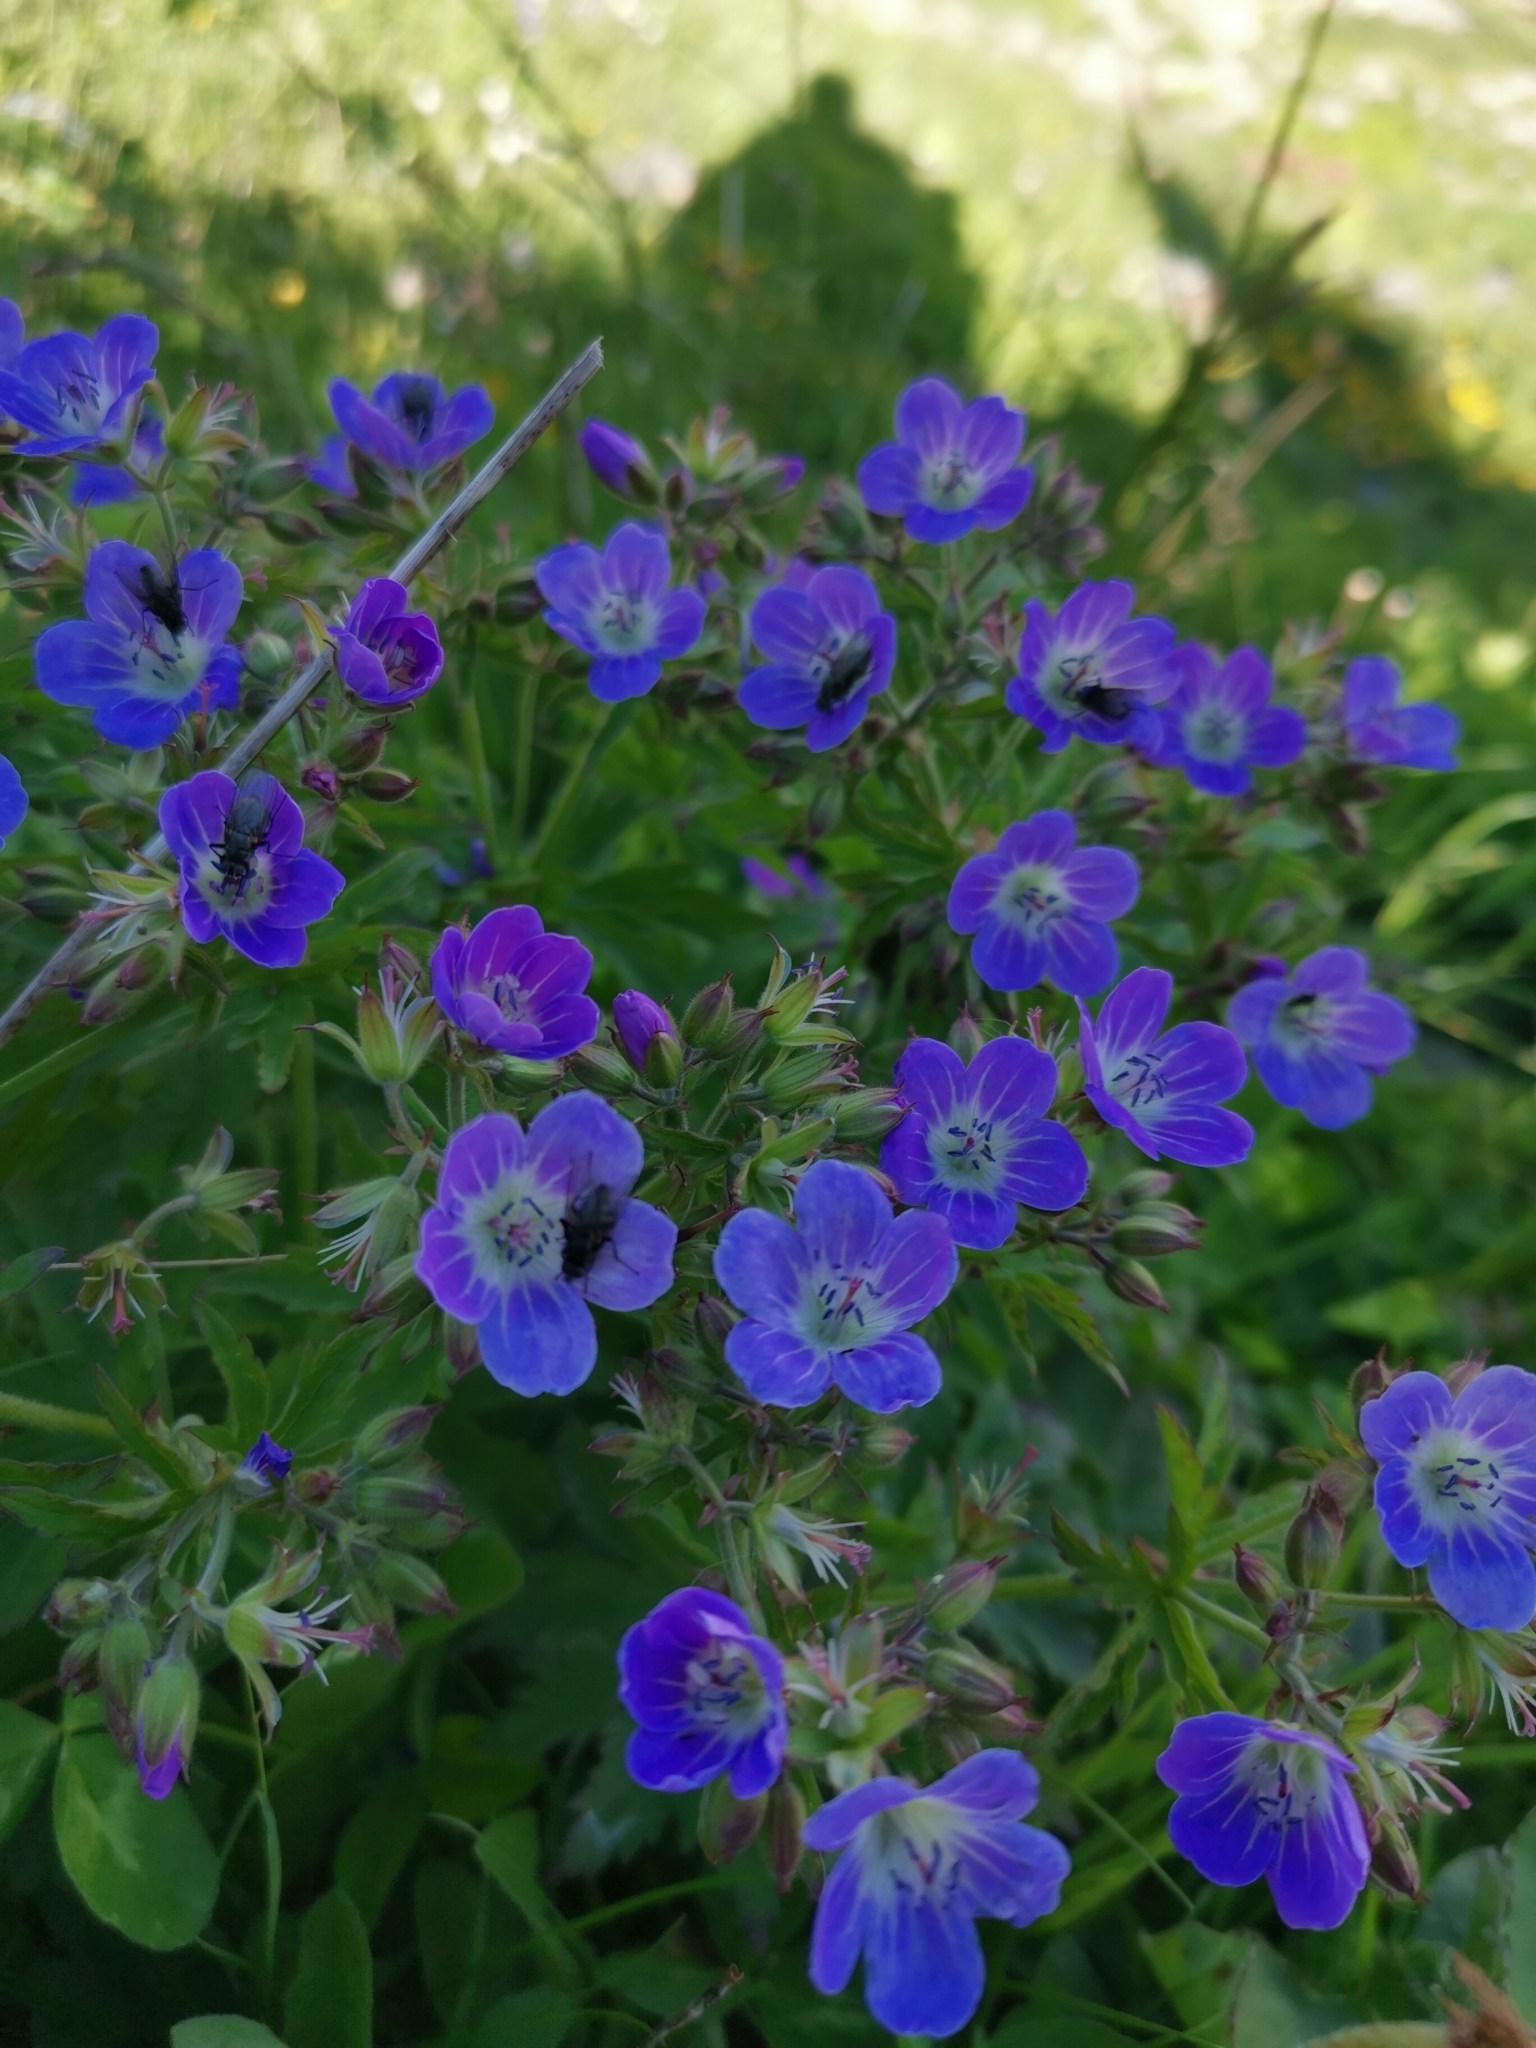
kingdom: Plantae
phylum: Tracheophyta
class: Magnoliopsida
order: Geraniales
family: Geraniaceae
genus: Geranium
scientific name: Geranium sylvaticum
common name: Wood crane's-bill
